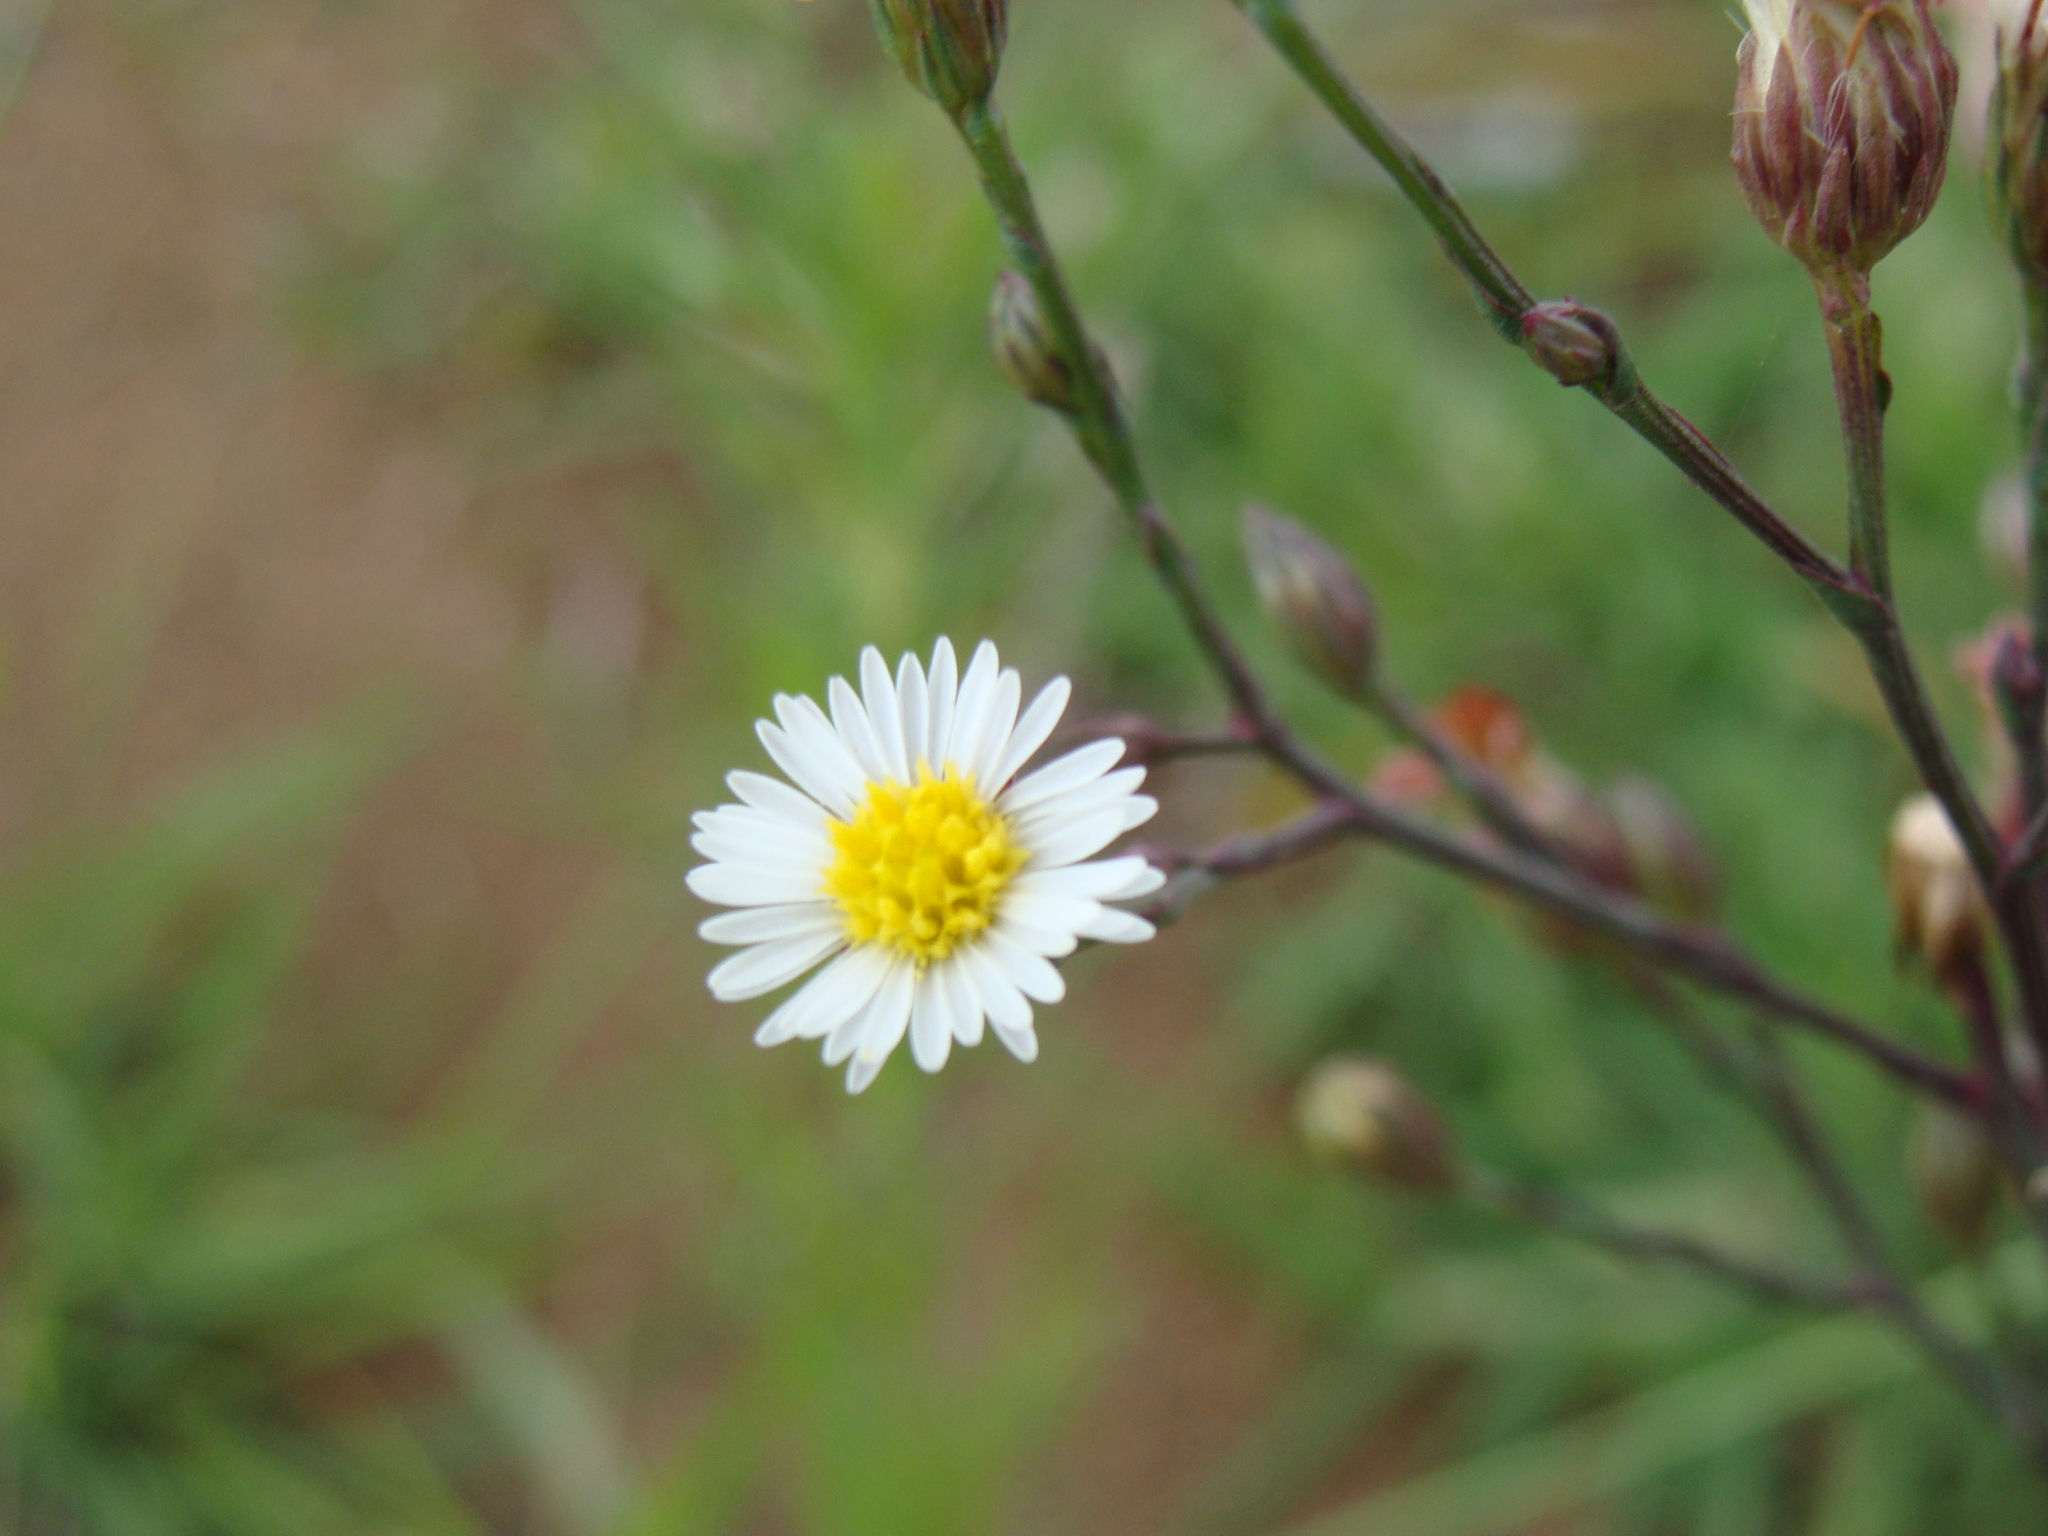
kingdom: Plantae
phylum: Tracheophyta
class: Magnoliopsida
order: Asterales
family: Asteraceae
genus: Symphyotrichum
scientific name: Symphyotrichum subulatum
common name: Annual saltmarsh aster
